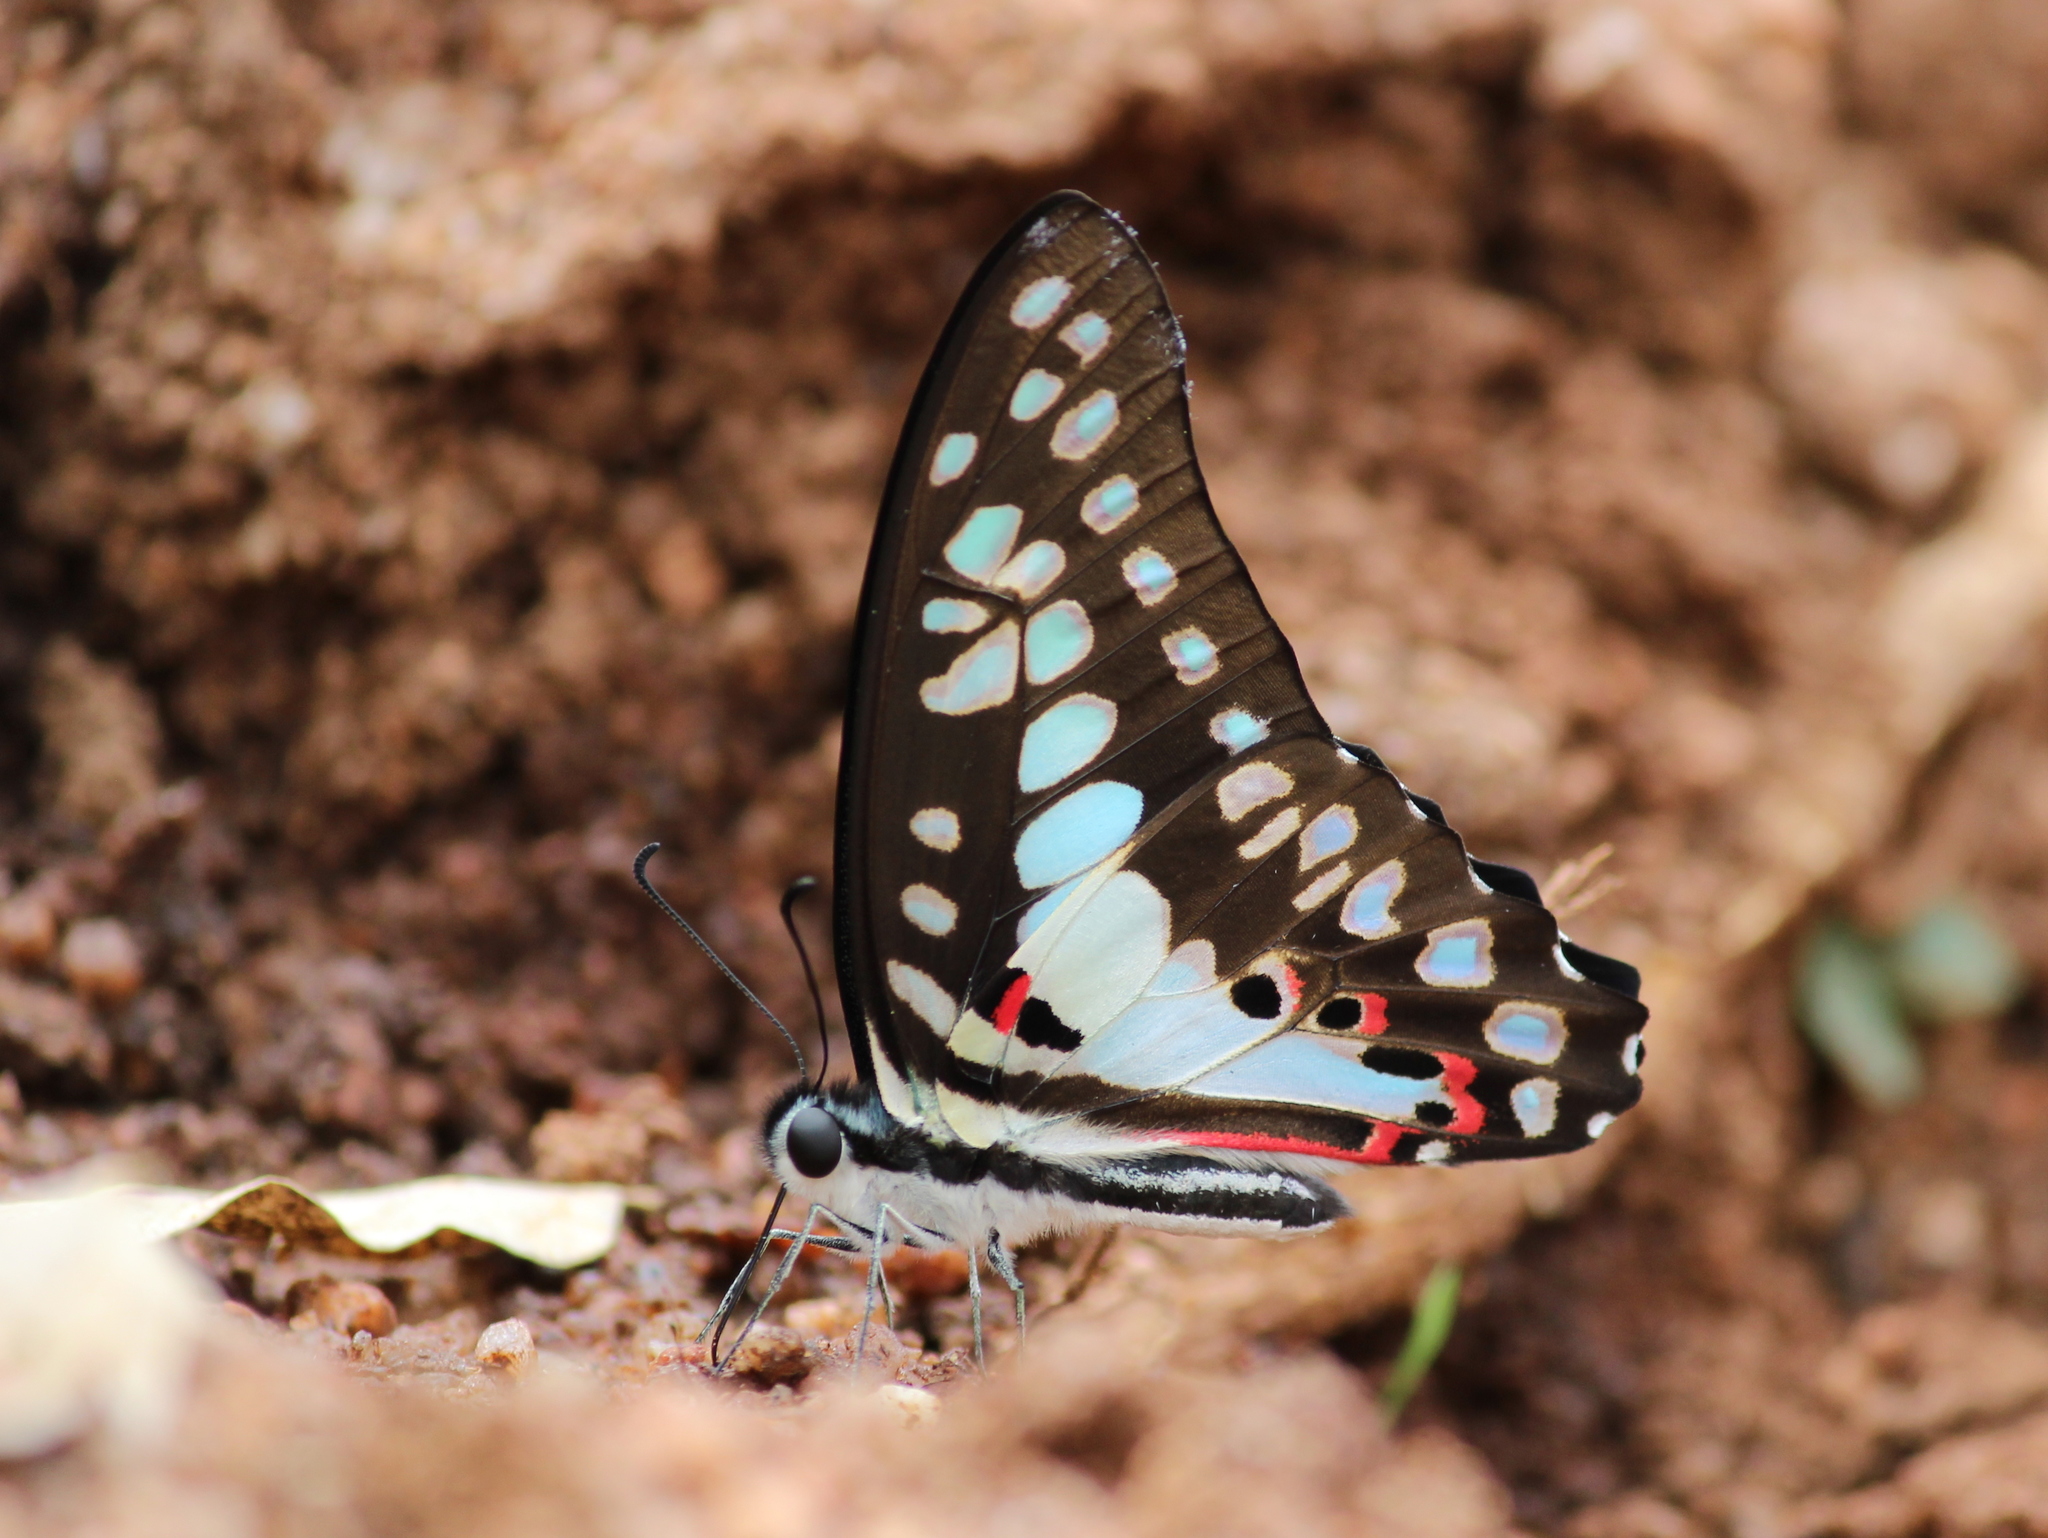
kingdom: Animalia
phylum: Arthropoda
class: Insecta
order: Lepidoptera
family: Papilionidae
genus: Graphium
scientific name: Graphium doson
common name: Common jay
